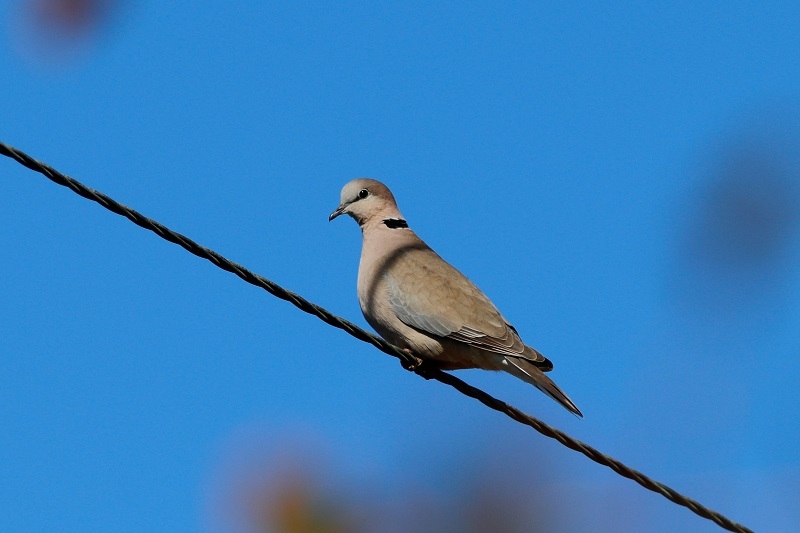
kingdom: Animalia
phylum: Chordata
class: Aves
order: Columbiformes
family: Columbidae
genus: Streptopelia
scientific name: Streptopelia capicola
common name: Ring-necked dove
